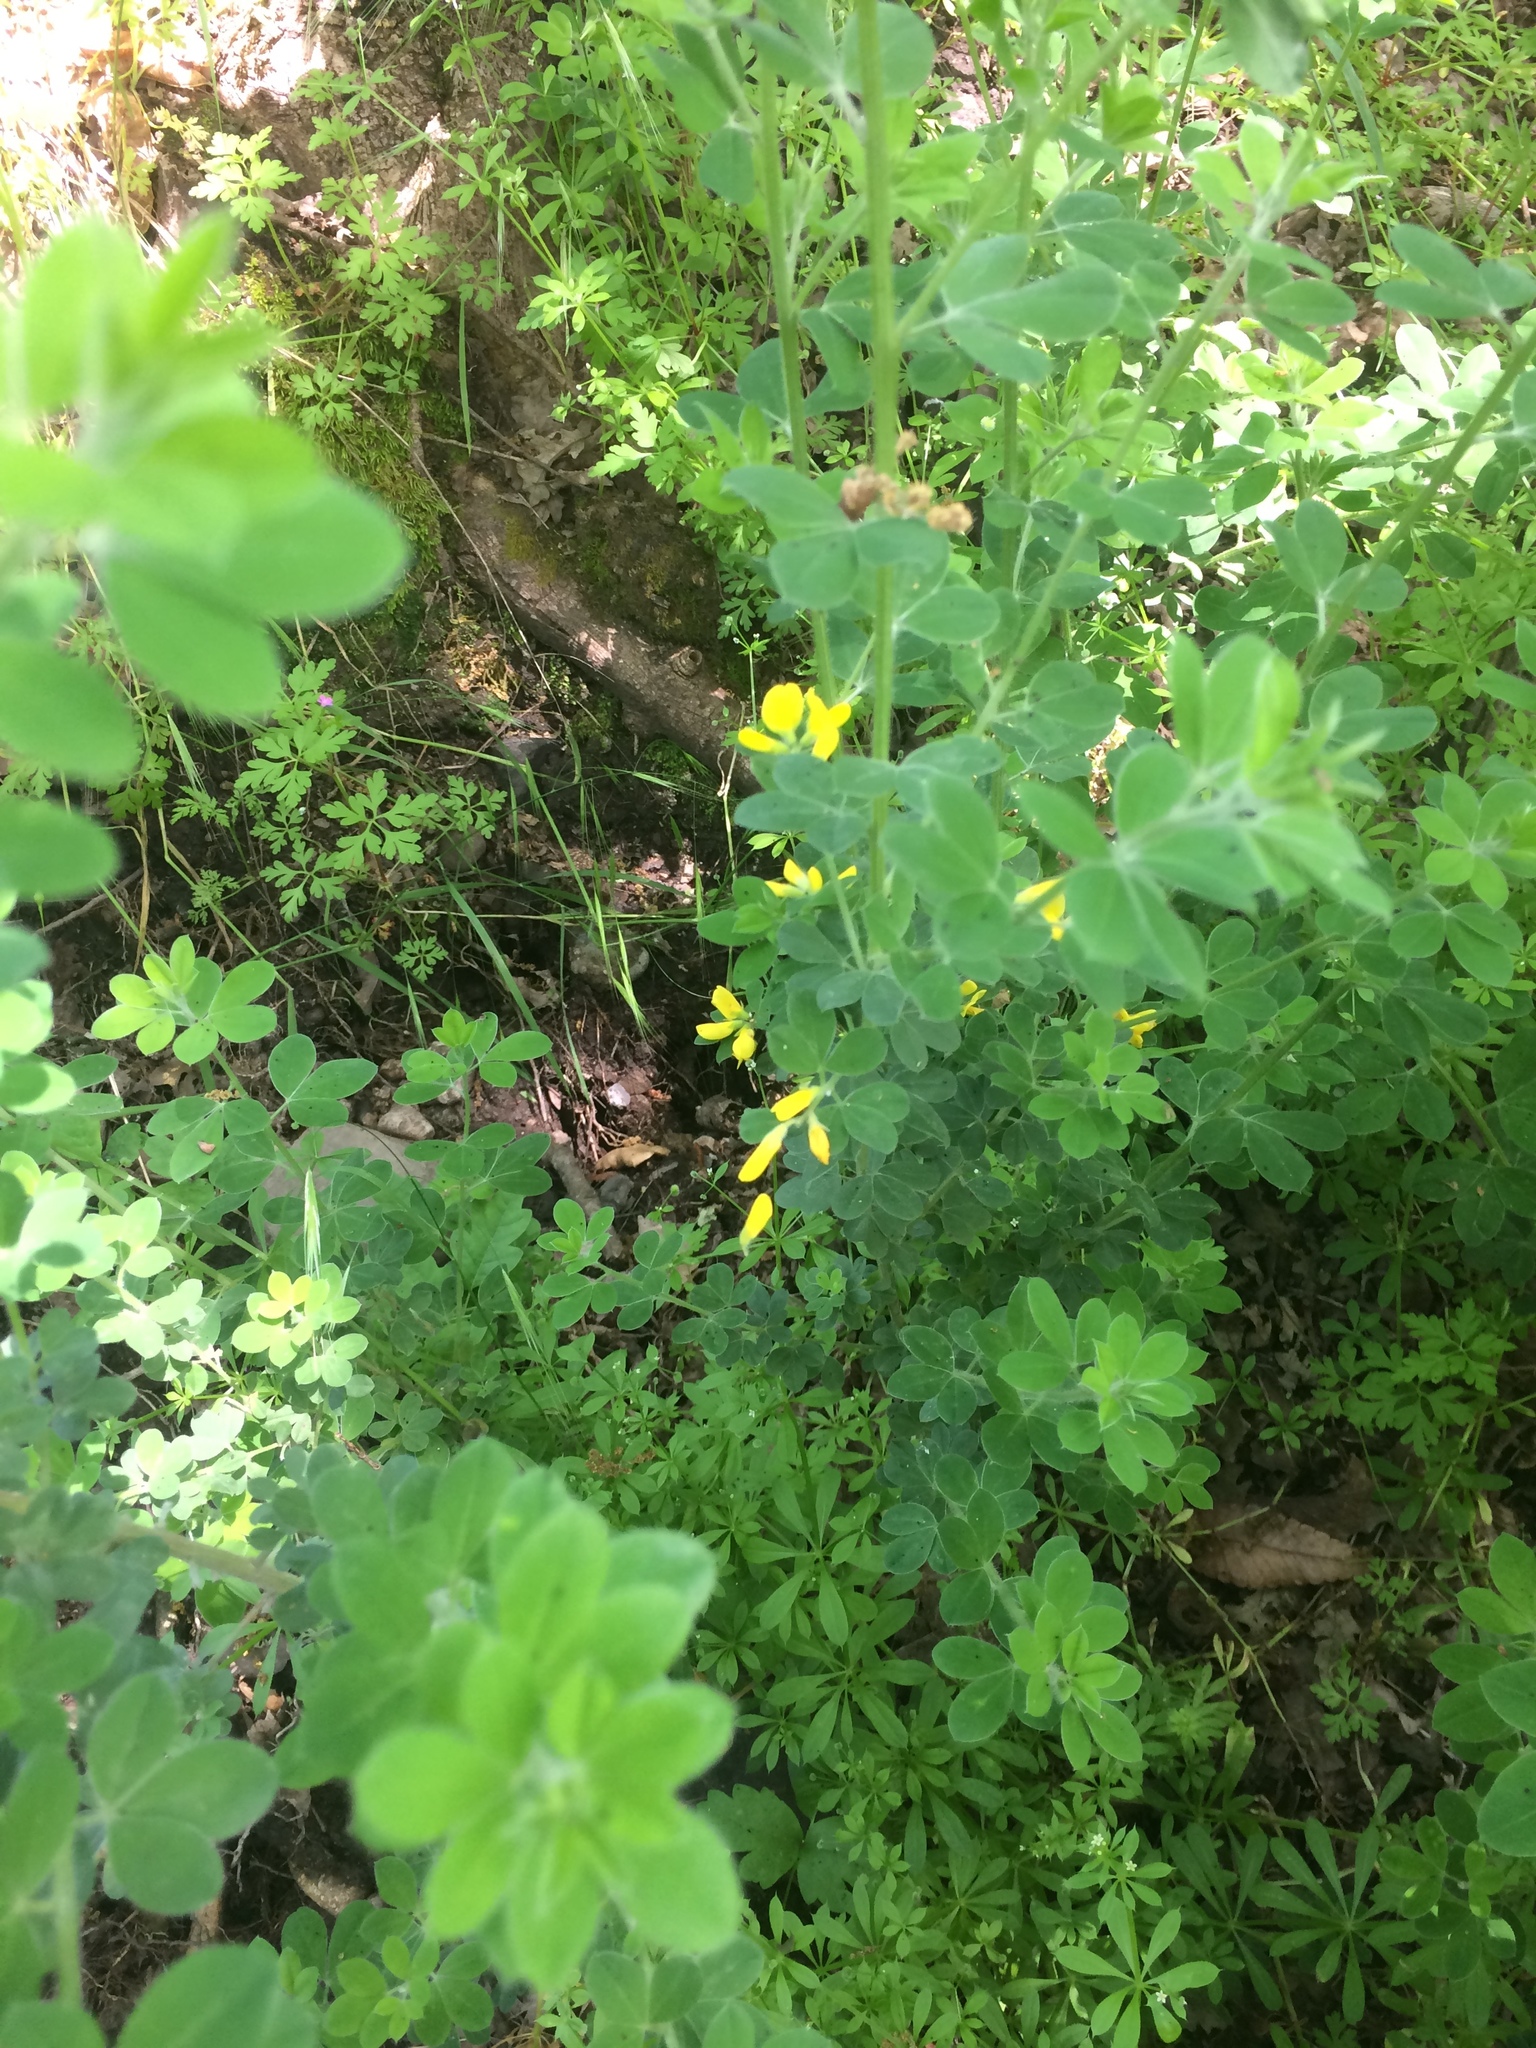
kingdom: Plantae
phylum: Tracheophyta
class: Magnoliopsida
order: Fabales
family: Fabaceae
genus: Genista
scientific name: Genista monspessulana
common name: Montpellier broom
